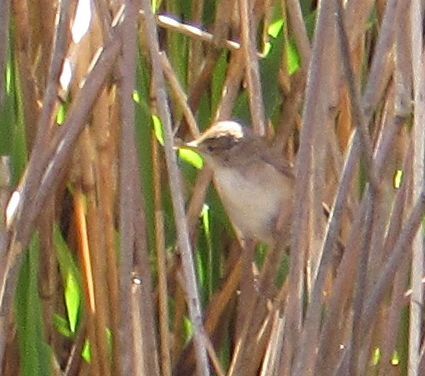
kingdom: Animalia
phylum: Chordata
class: Aves
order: Passeriformes
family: Acrocephalidae
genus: Acrocephalus
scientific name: Acrocephalus scirpaceus
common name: Eurasian reed warbler
